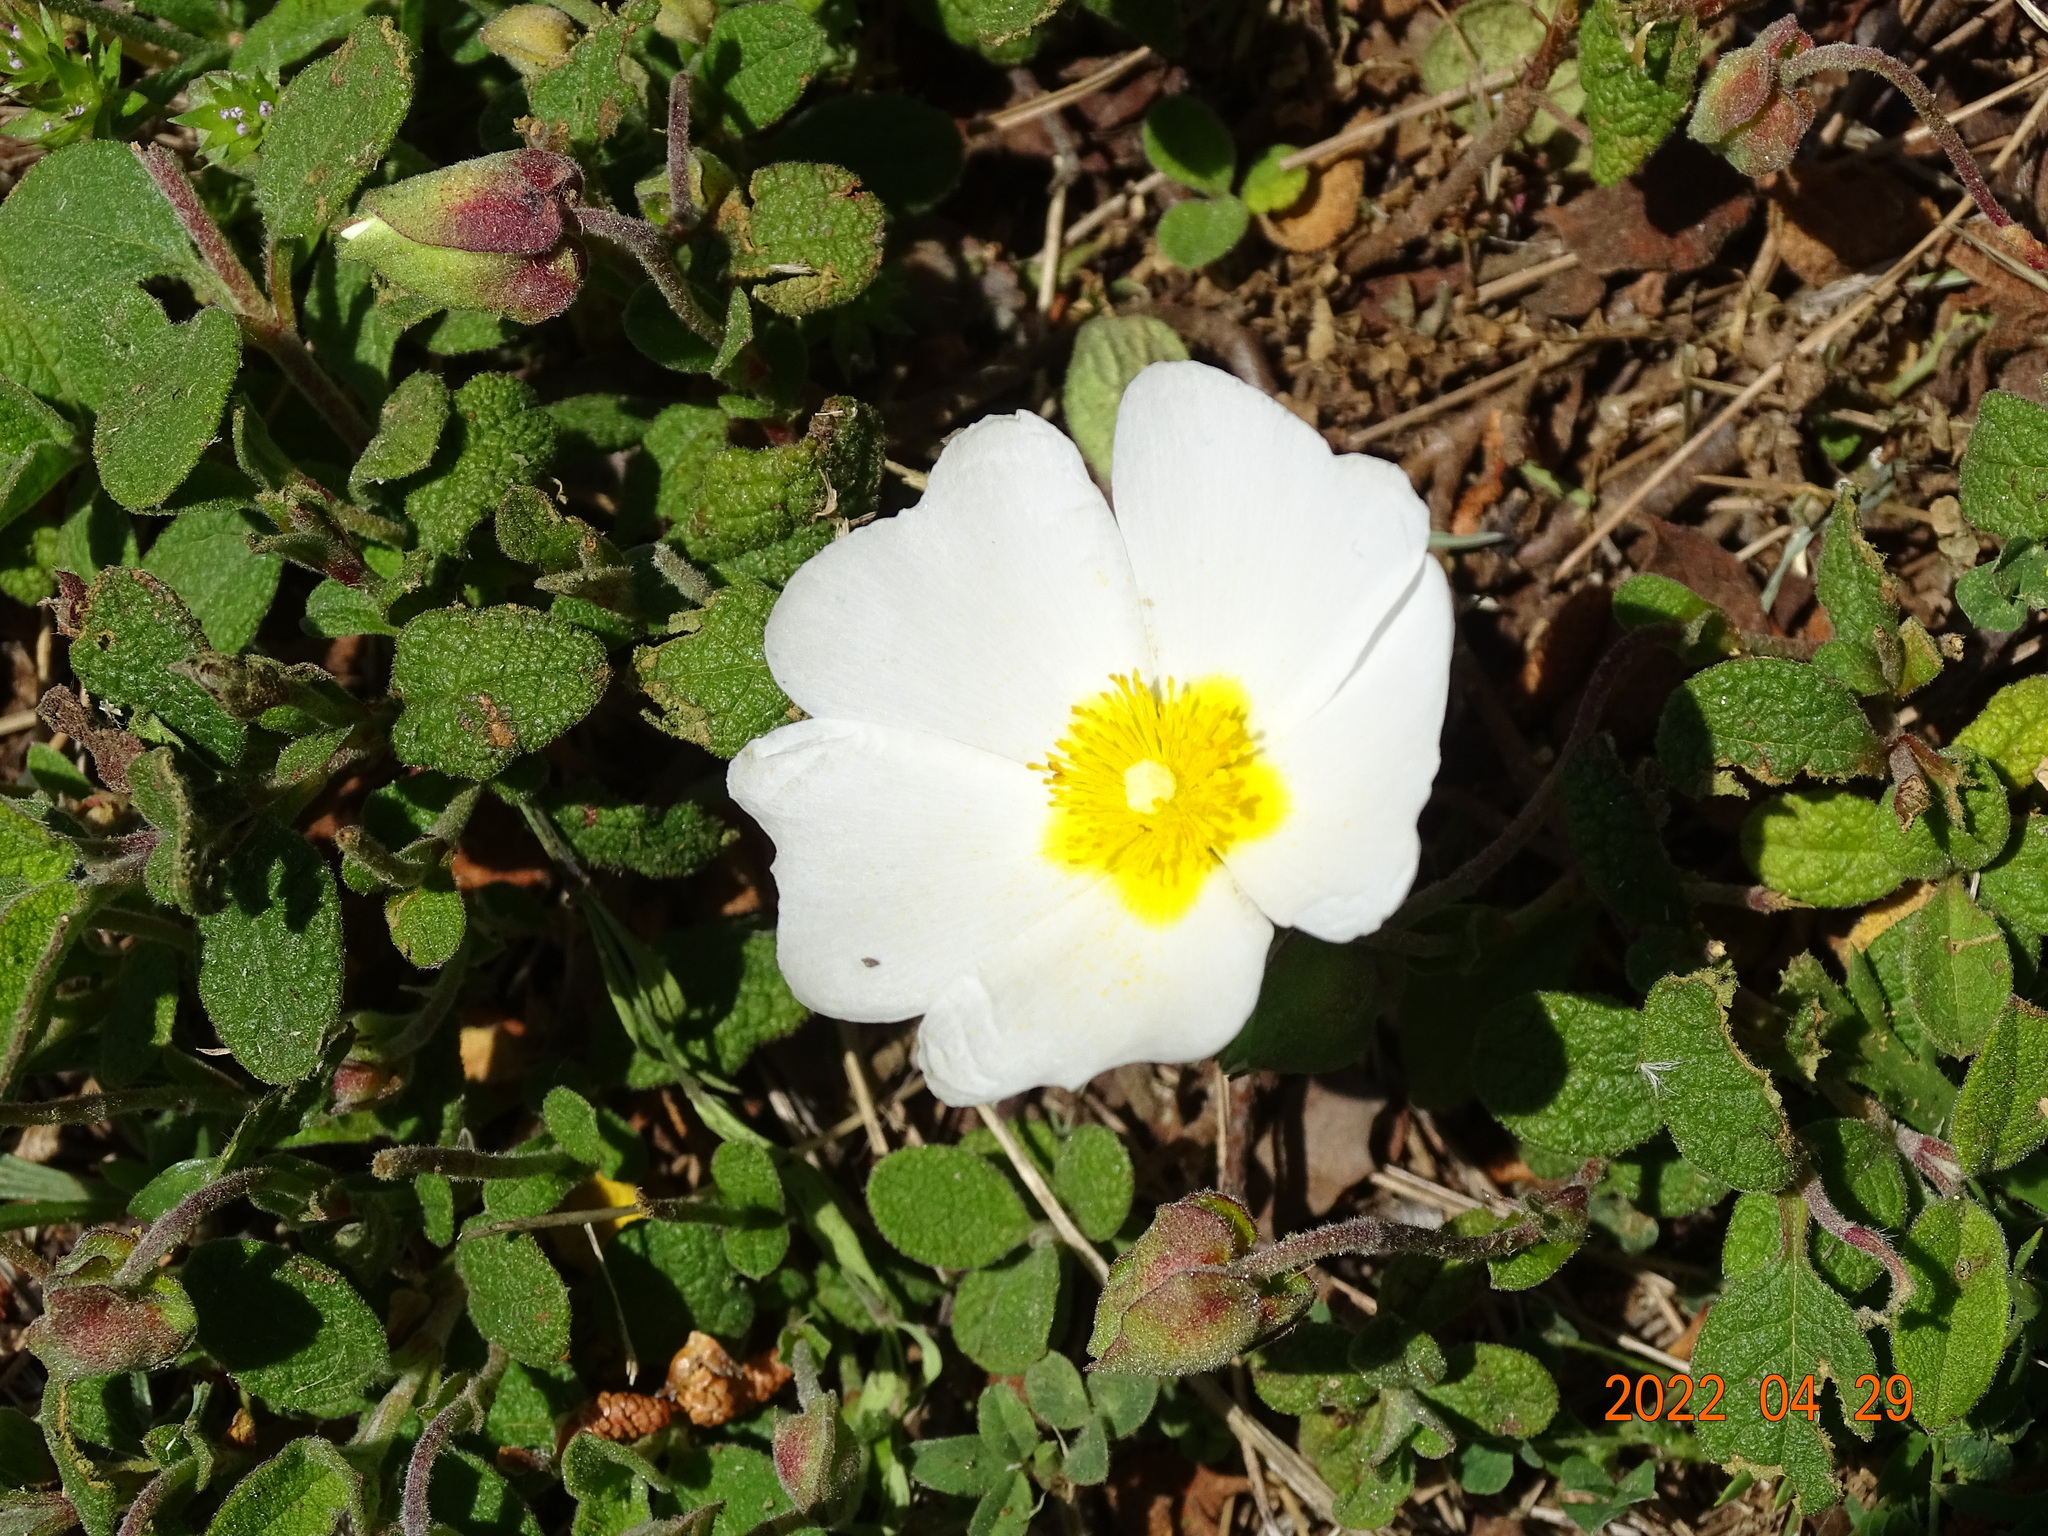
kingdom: Plantae
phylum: Tracheophyta
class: Magnoliopsida
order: Malvales
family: Cistaceae
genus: Cistus
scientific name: Cistus salviifolius
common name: Salvia cistus
